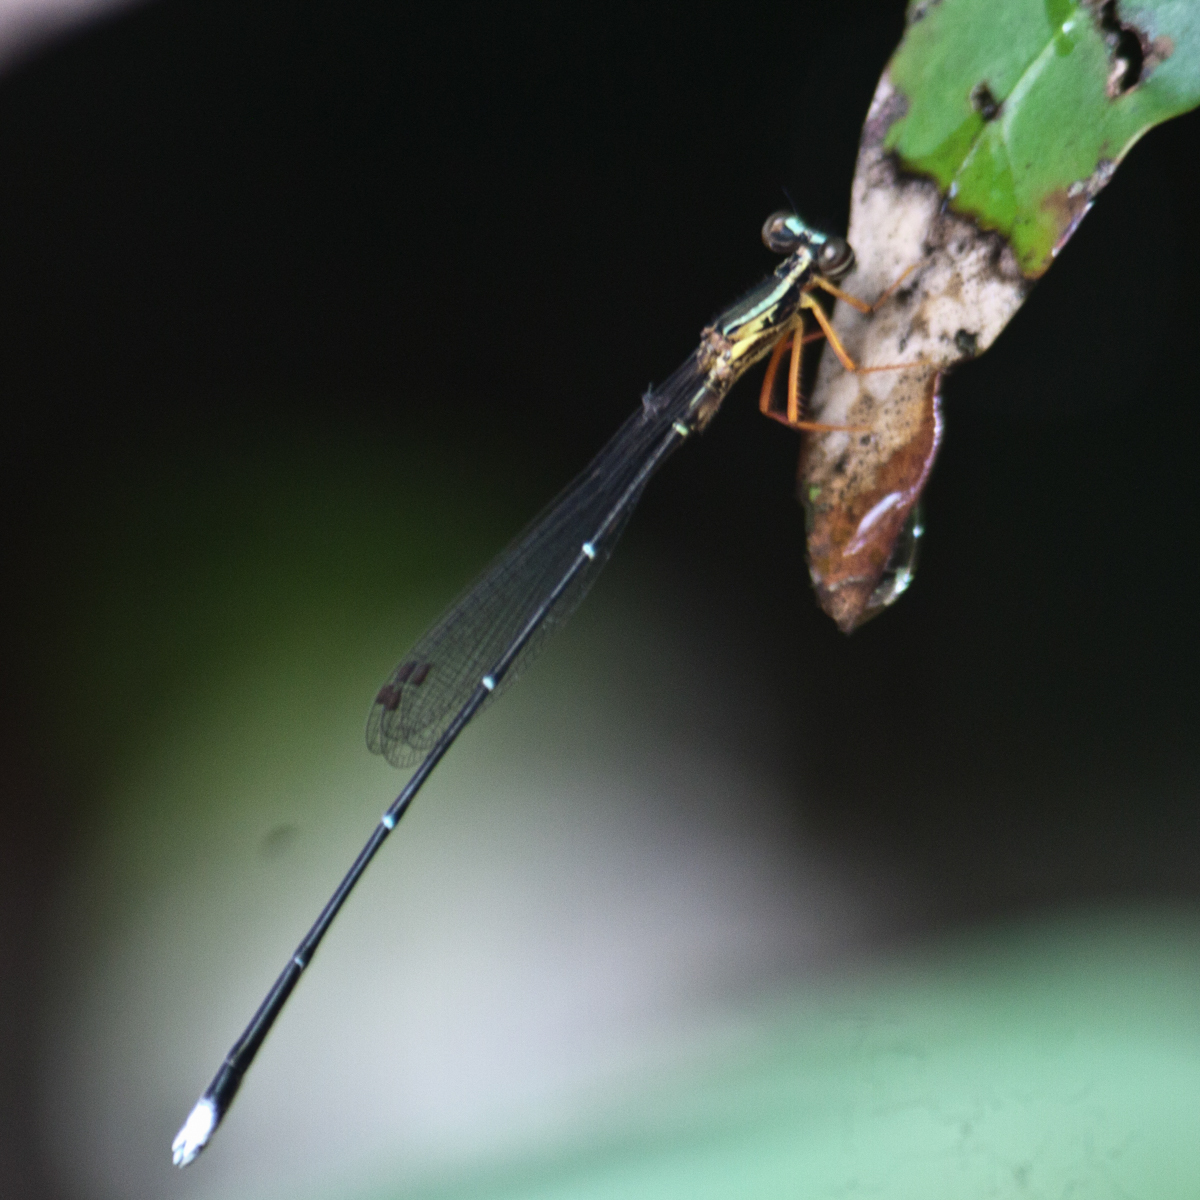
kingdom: Animalia
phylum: Arthropoda
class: Insecta
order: Odonata
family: Platycnemididae
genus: Copera
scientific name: Copera vittata
